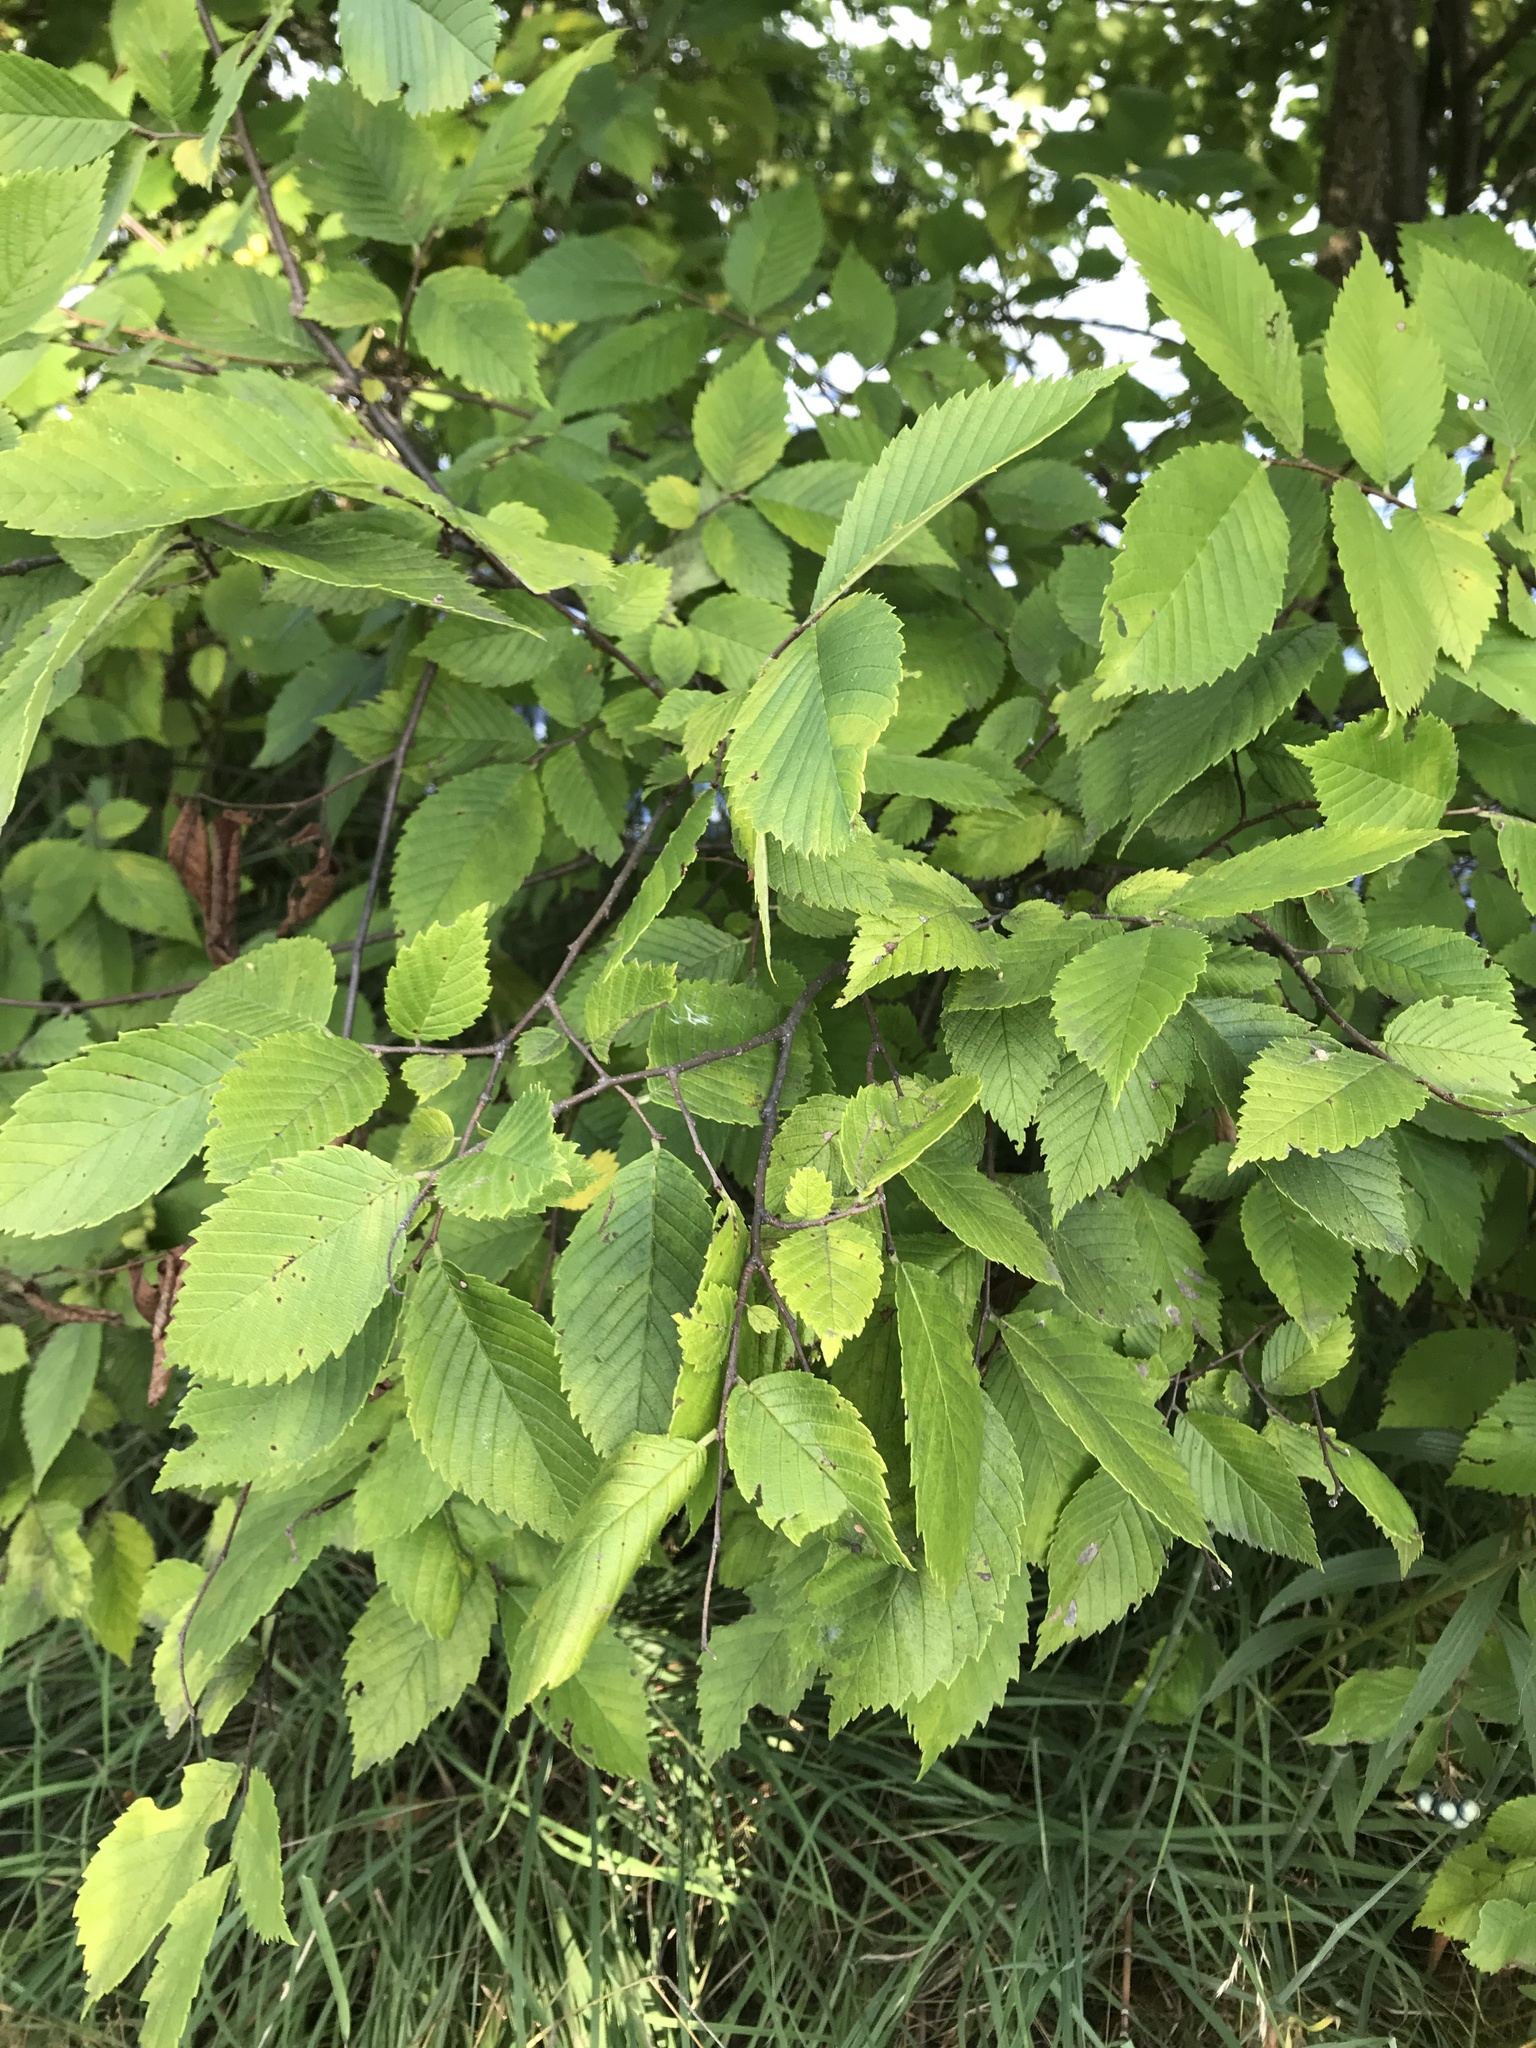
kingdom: Plantae
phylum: Tracheophyta
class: Magnoliopsida
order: Rosales
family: Ulmaceae
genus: Ulmus
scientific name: Ulmus rubra
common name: Slippery elm
